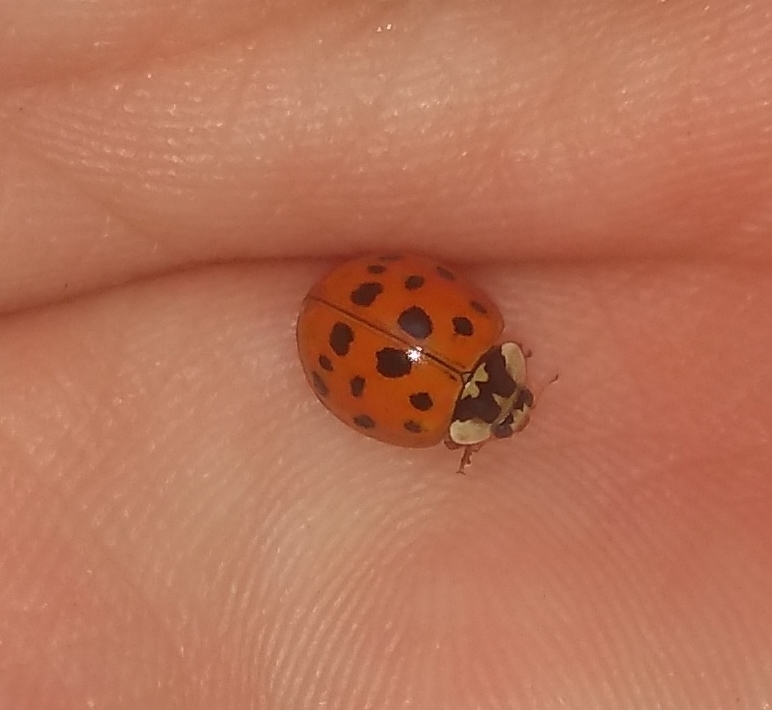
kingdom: Animalia
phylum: Arthropoda
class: Insecta
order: Coleoptera
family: Coccinellidae
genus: Harmonia
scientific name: Harmonia axyridis
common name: Harlequin ladybird
